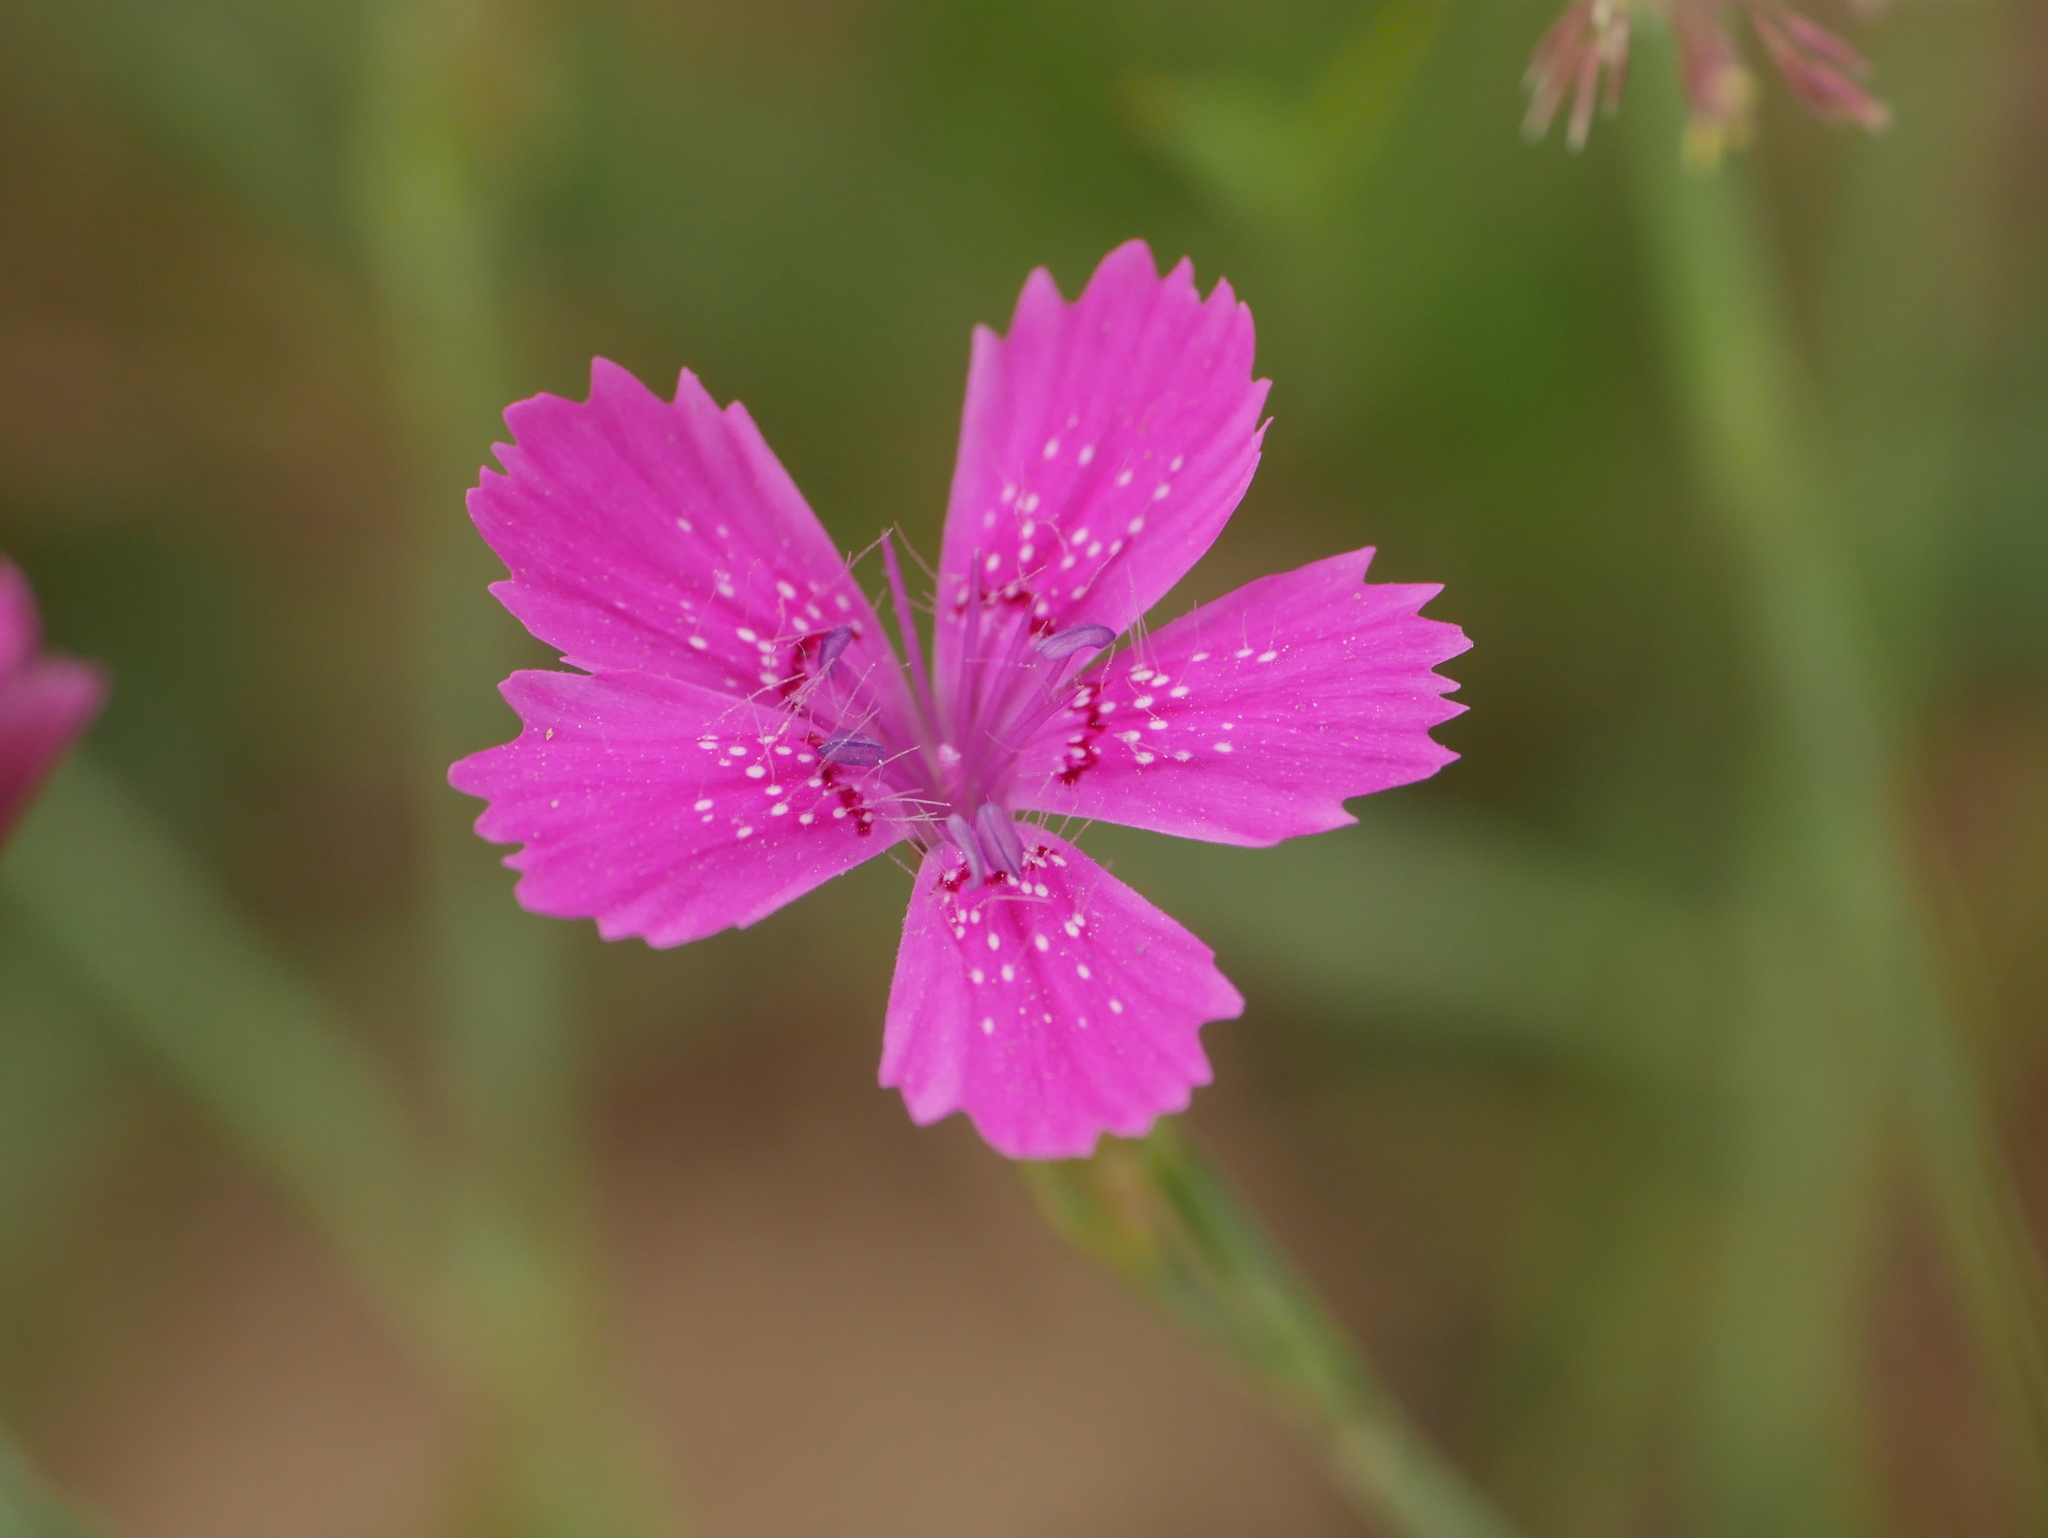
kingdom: Plantae
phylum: Tracheophyta
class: Magnoliopsida
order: Caryophyllales
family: Caryophyllaceae
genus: Dianthus
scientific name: Dianthus deltoides
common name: Maiden pink
